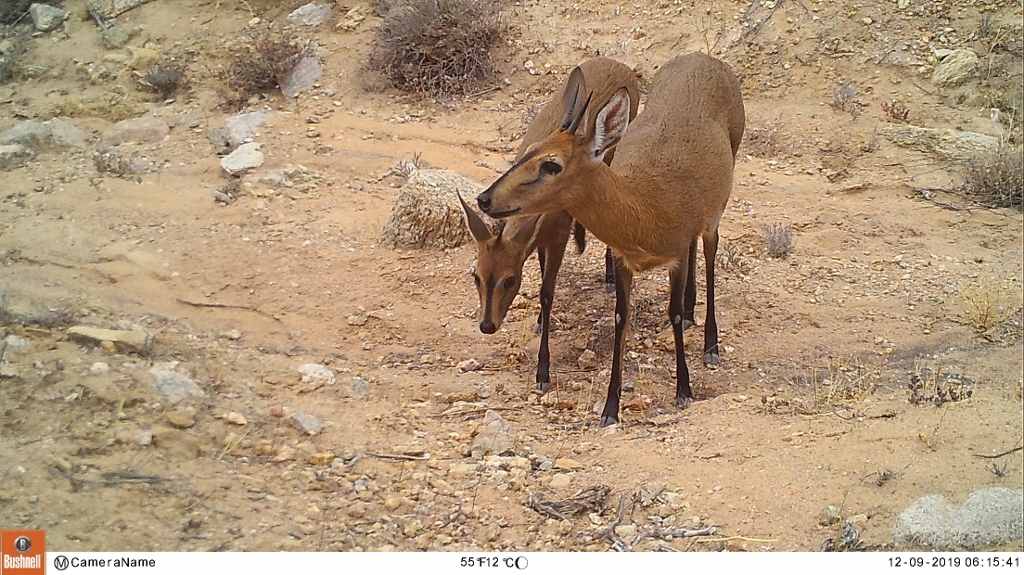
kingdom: Animalia
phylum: Chordata
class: Mammalia
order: Artiodactyla
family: Bovidae
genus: Sylvicapra
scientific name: Sylvicapra grimmia
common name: Bush duiker
